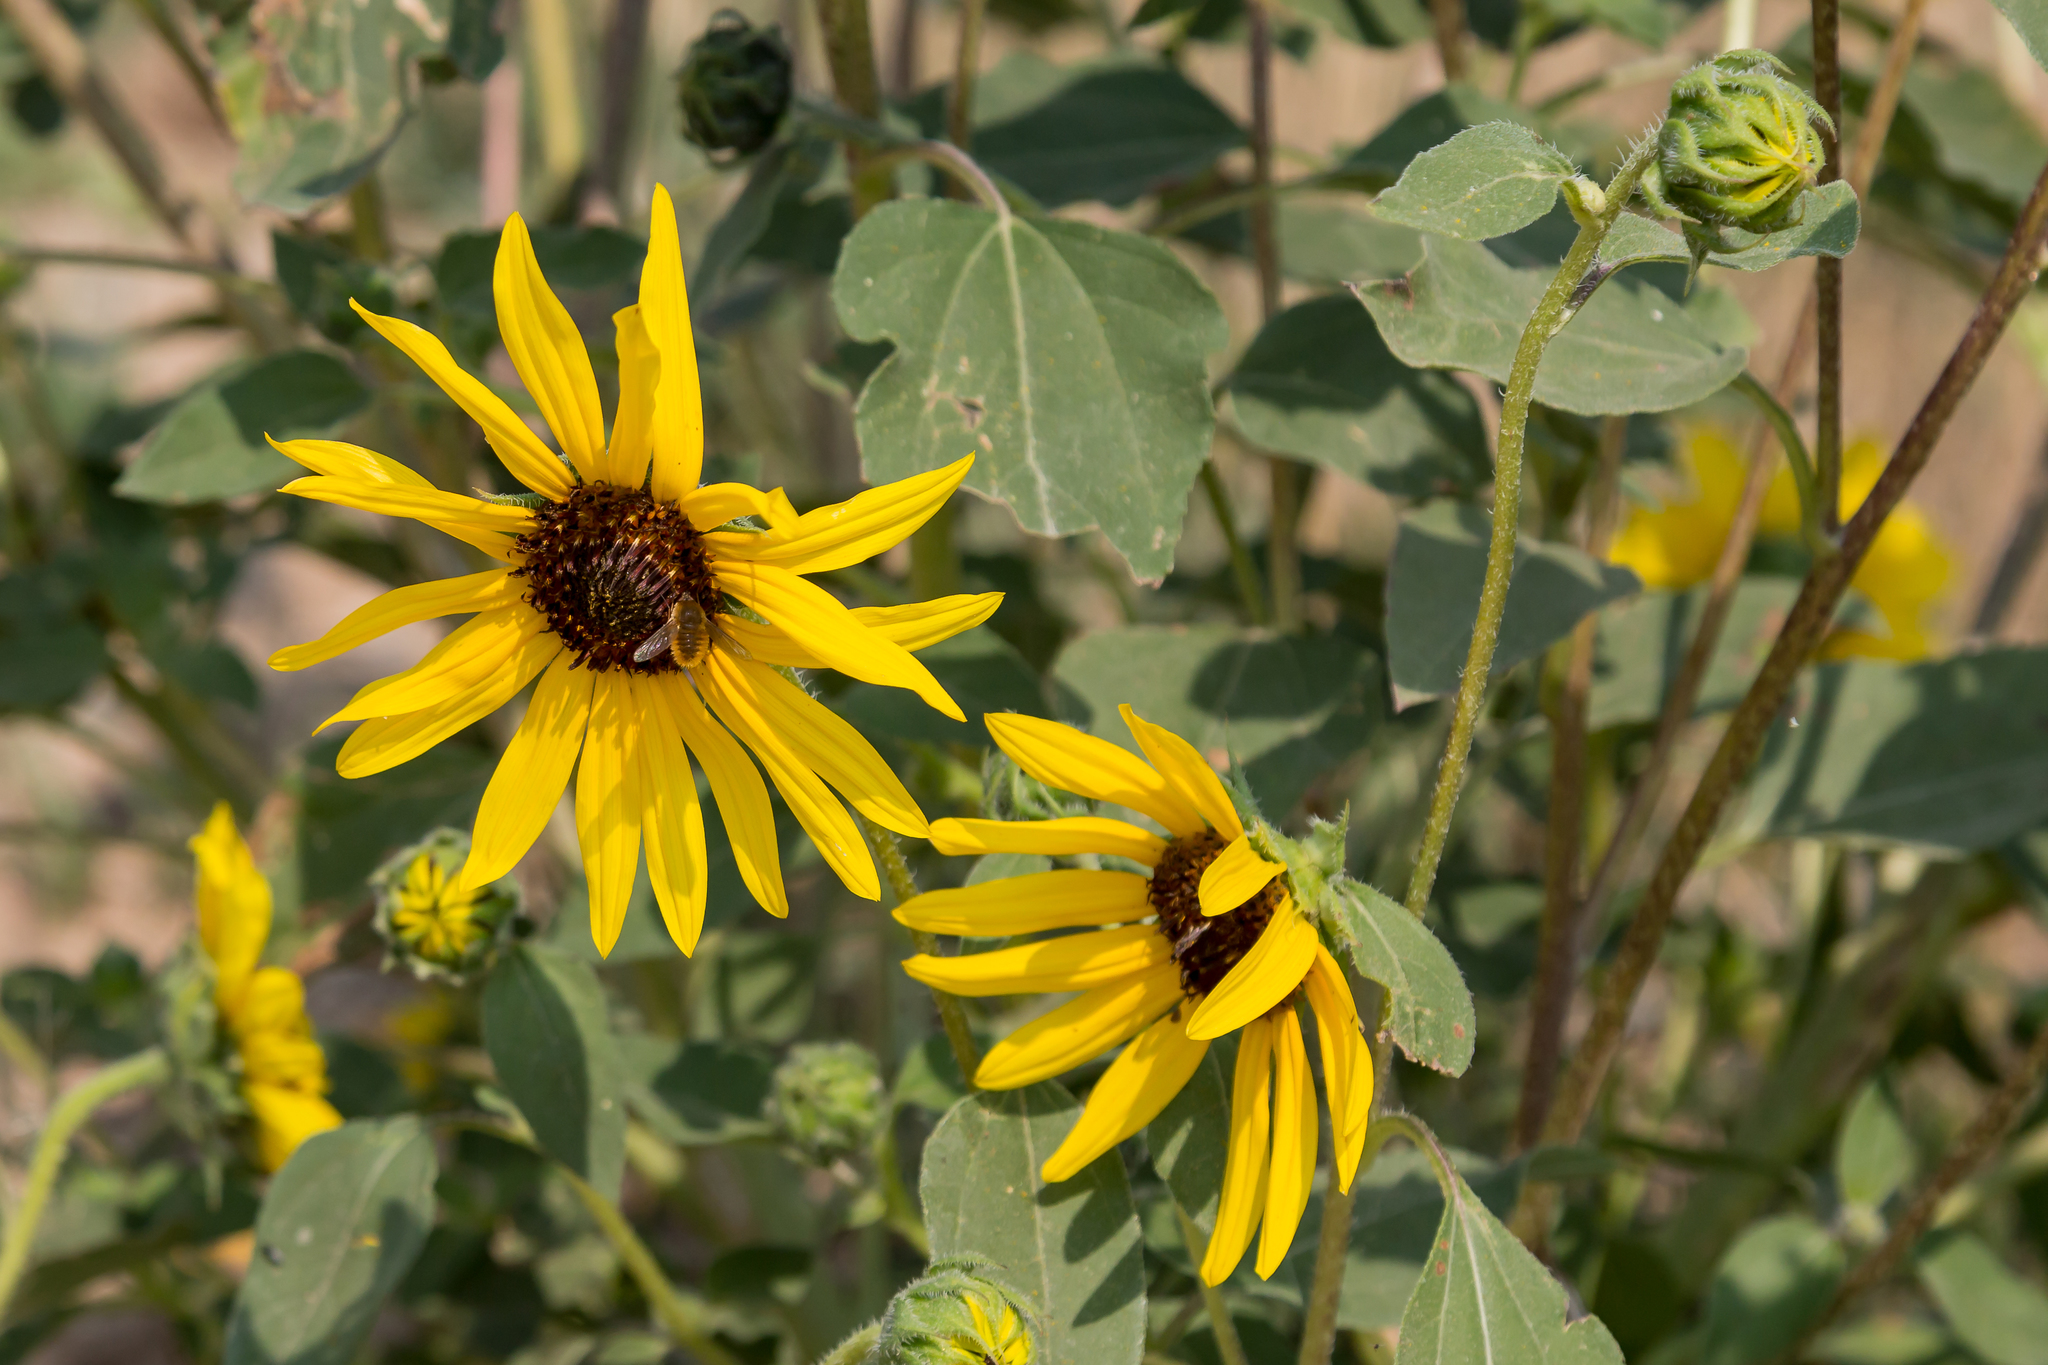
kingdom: Plantae
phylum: Tracheophyta
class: Magnoliopsida
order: Asterales
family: Asteraceae
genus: Helianthus
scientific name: Helianthus annuus
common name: Sunflower
